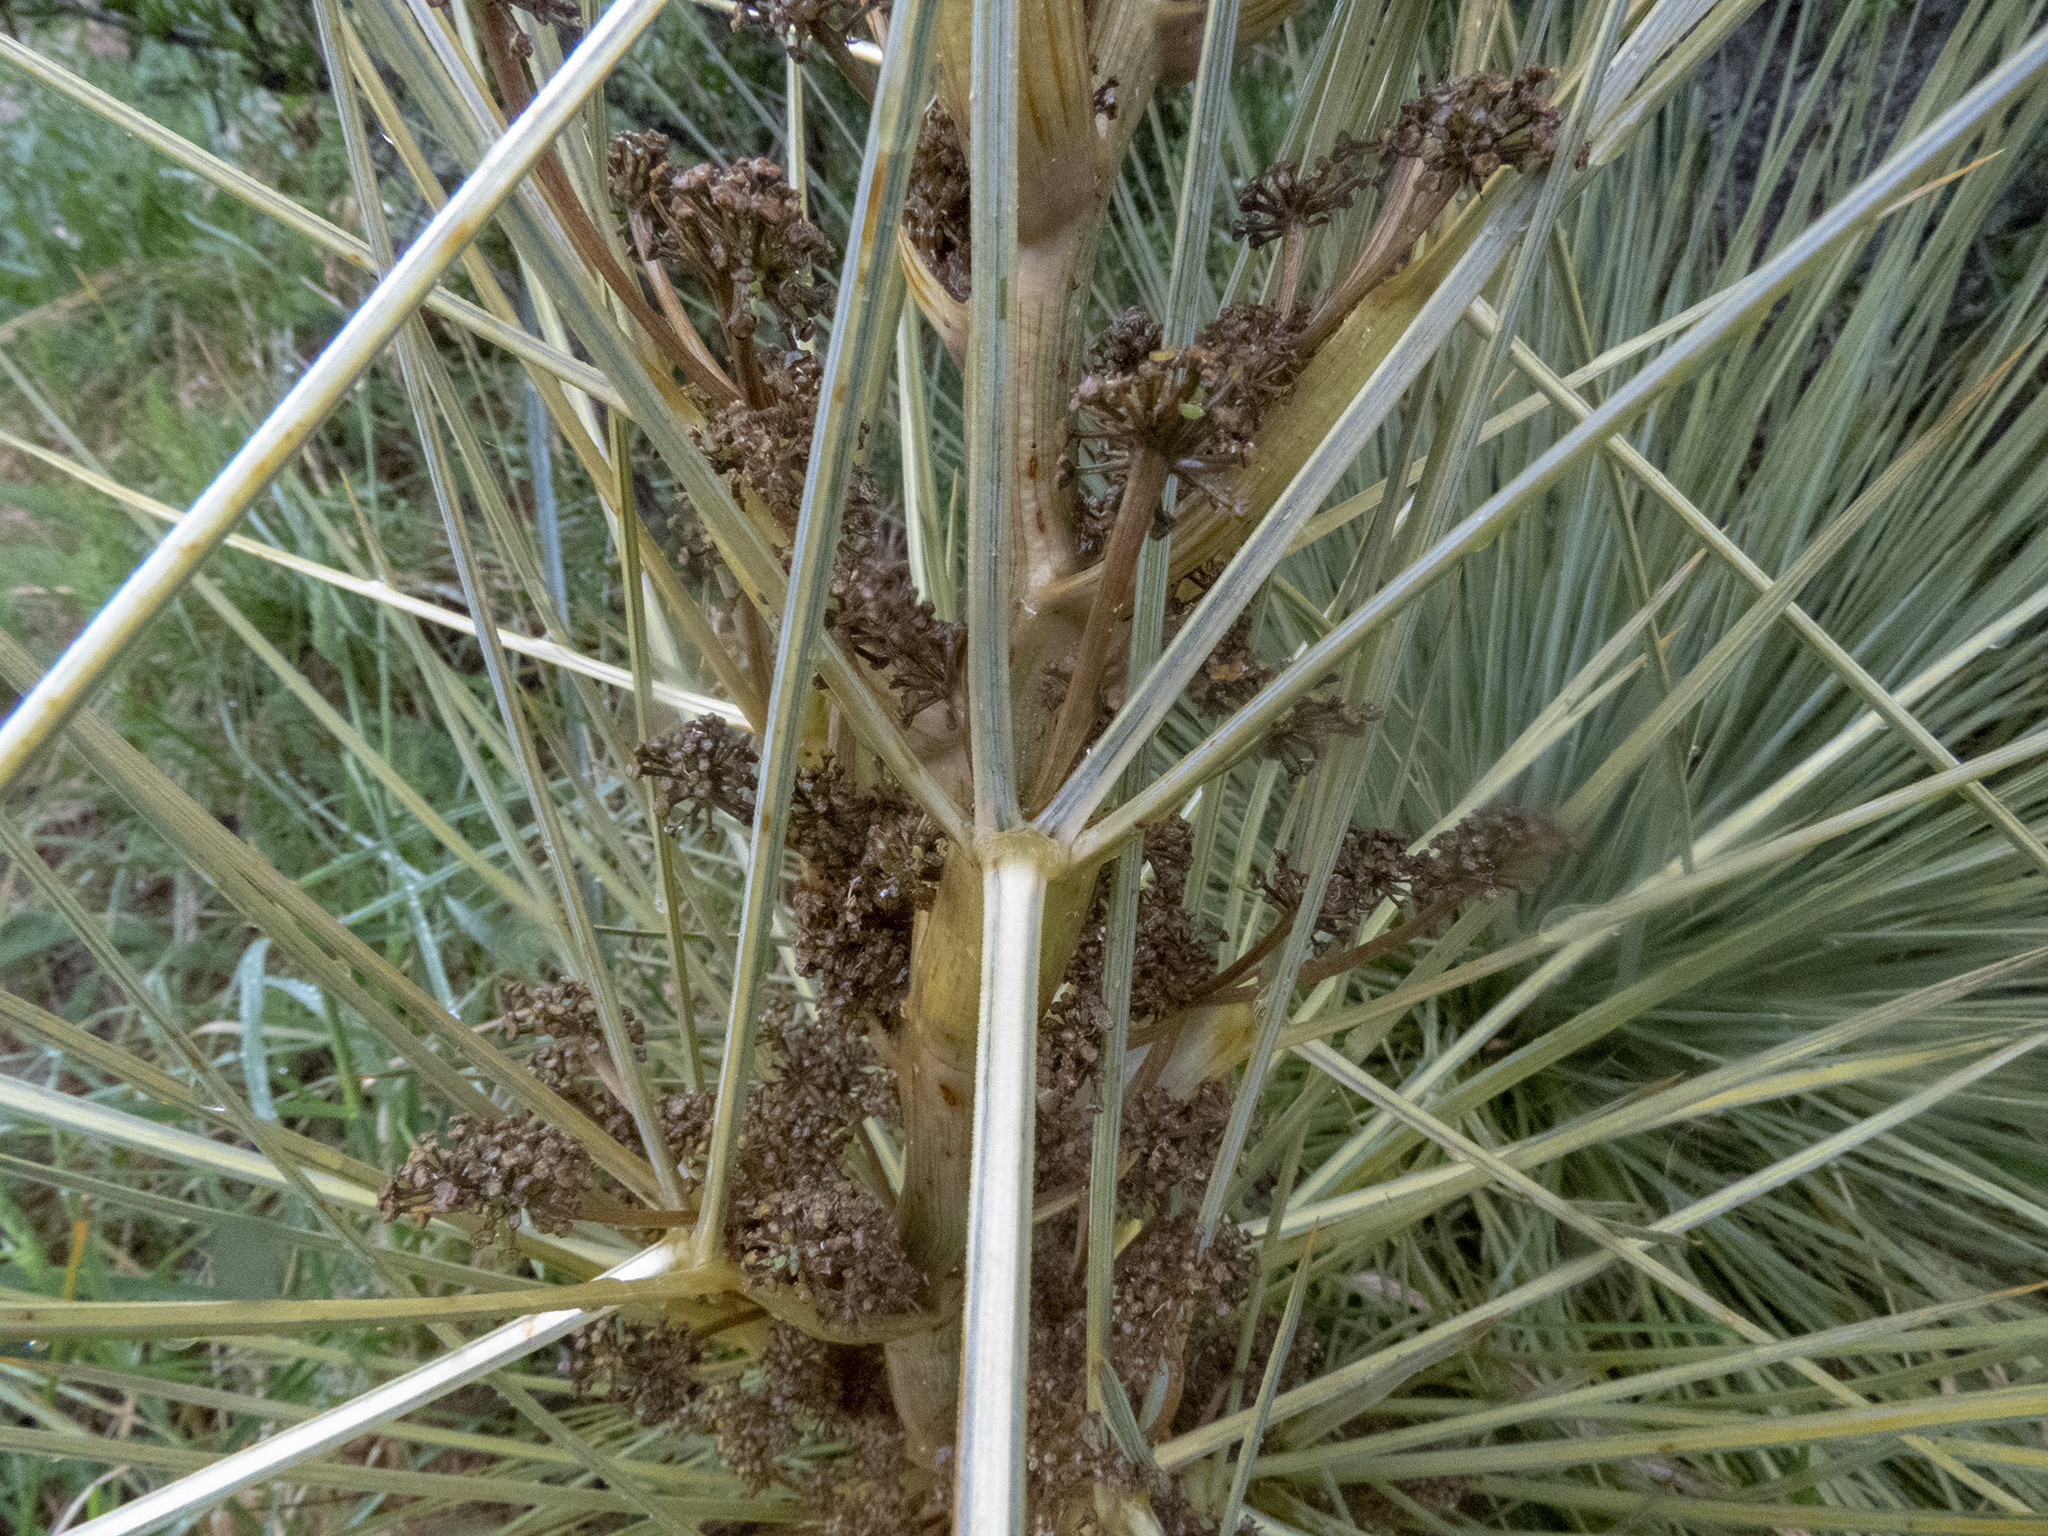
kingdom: Plantae
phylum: Tracheophyta
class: Magnoliopsida
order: Apiales
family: Apiaceae
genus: Aciphylla
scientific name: Aciphylla subflabellata
